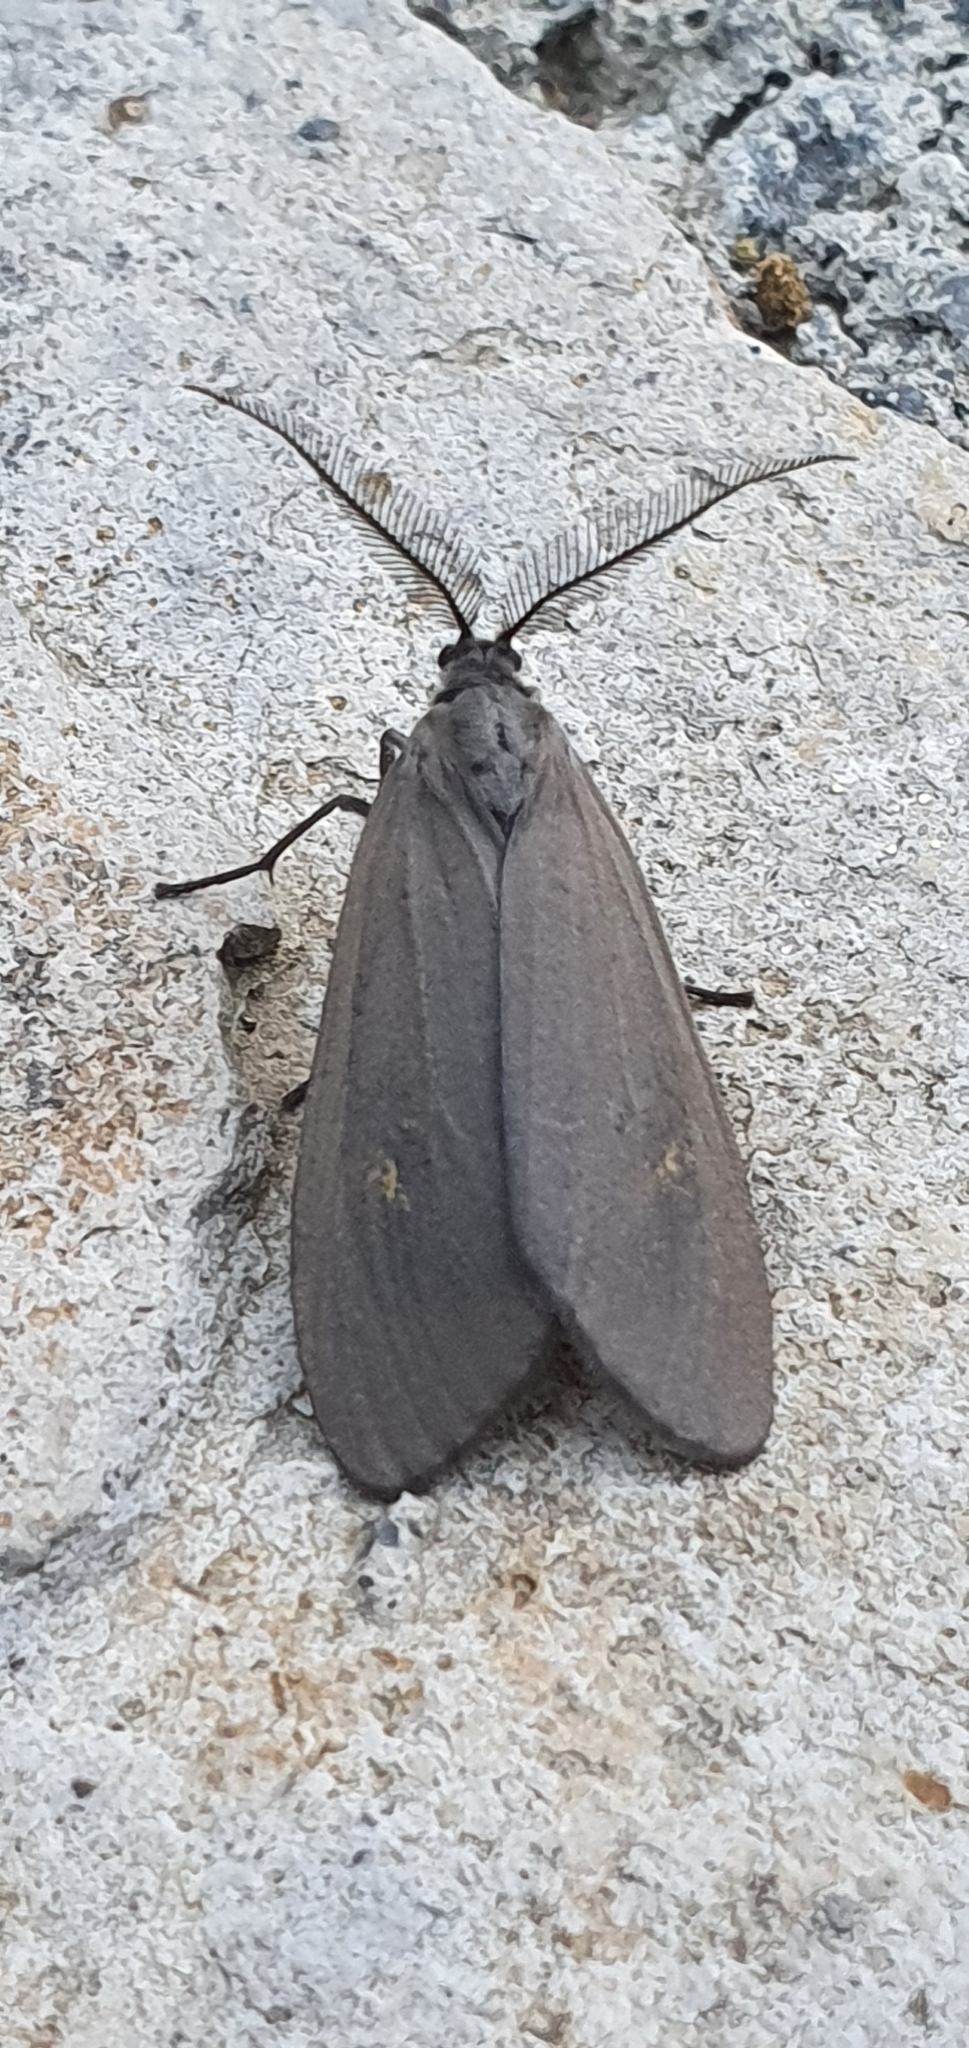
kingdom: Animalia
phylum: Arthropoda
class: Insecta
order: Lepidoptera
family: Notodontidae
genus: Phryganidia
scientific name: Phryganidia naxa
